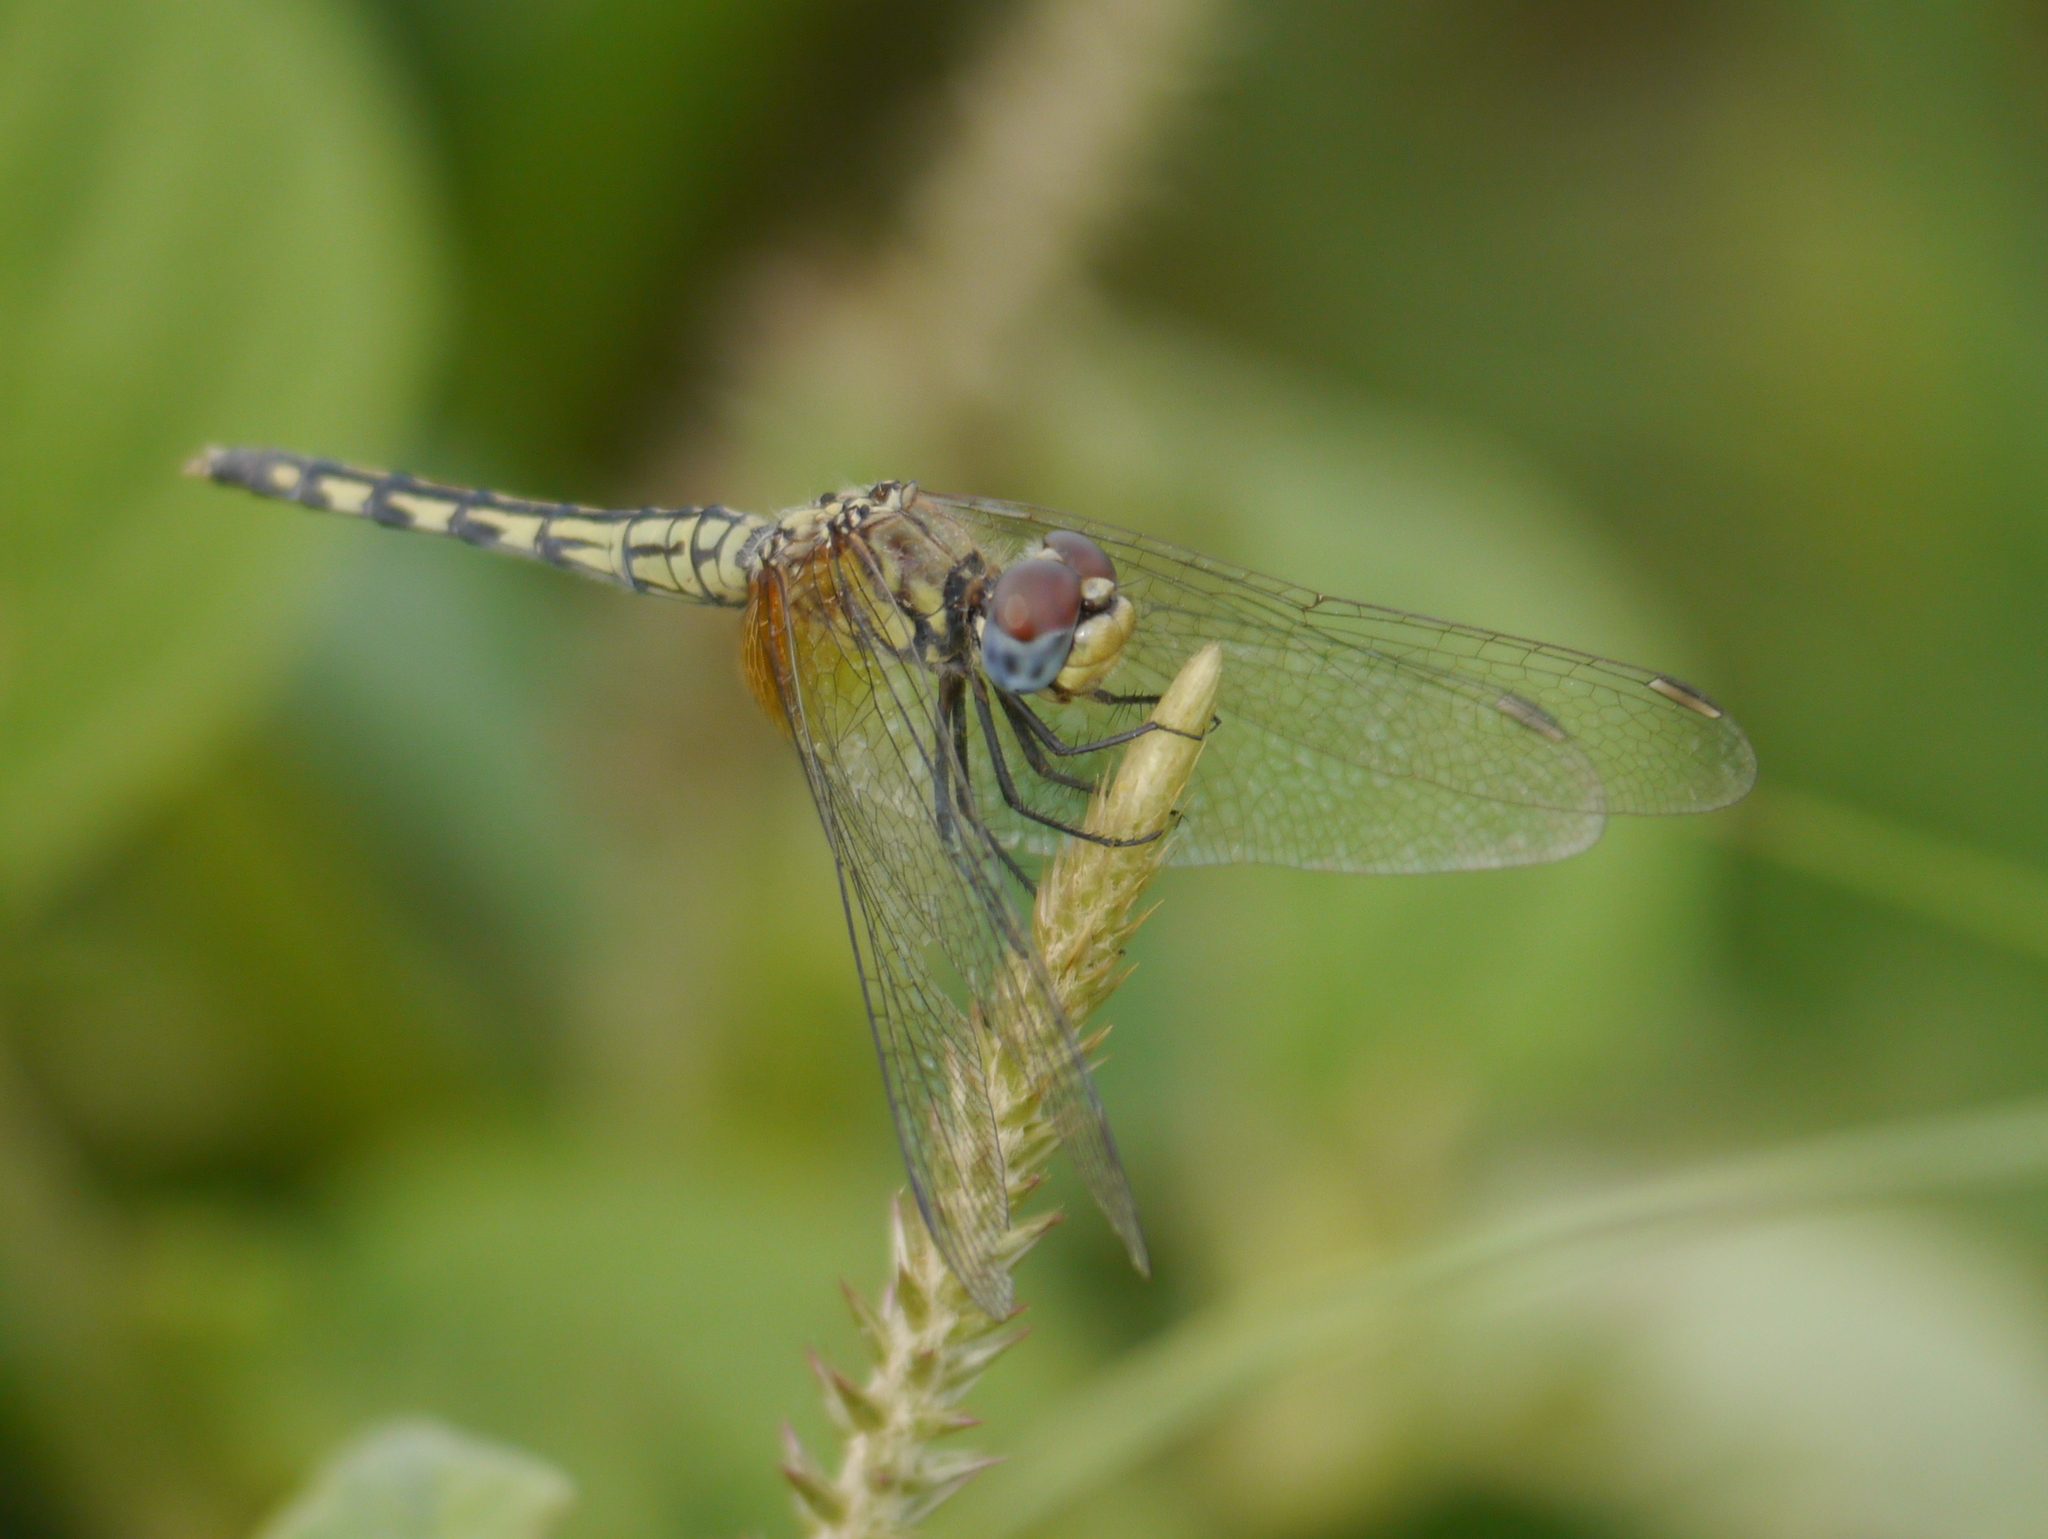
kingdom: Animalia
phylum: Arthropoda
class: Insecta
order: Odonata
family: Libellulidae
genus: Diplacodes
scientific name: Diplacodes luminans
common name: Barbet percher
